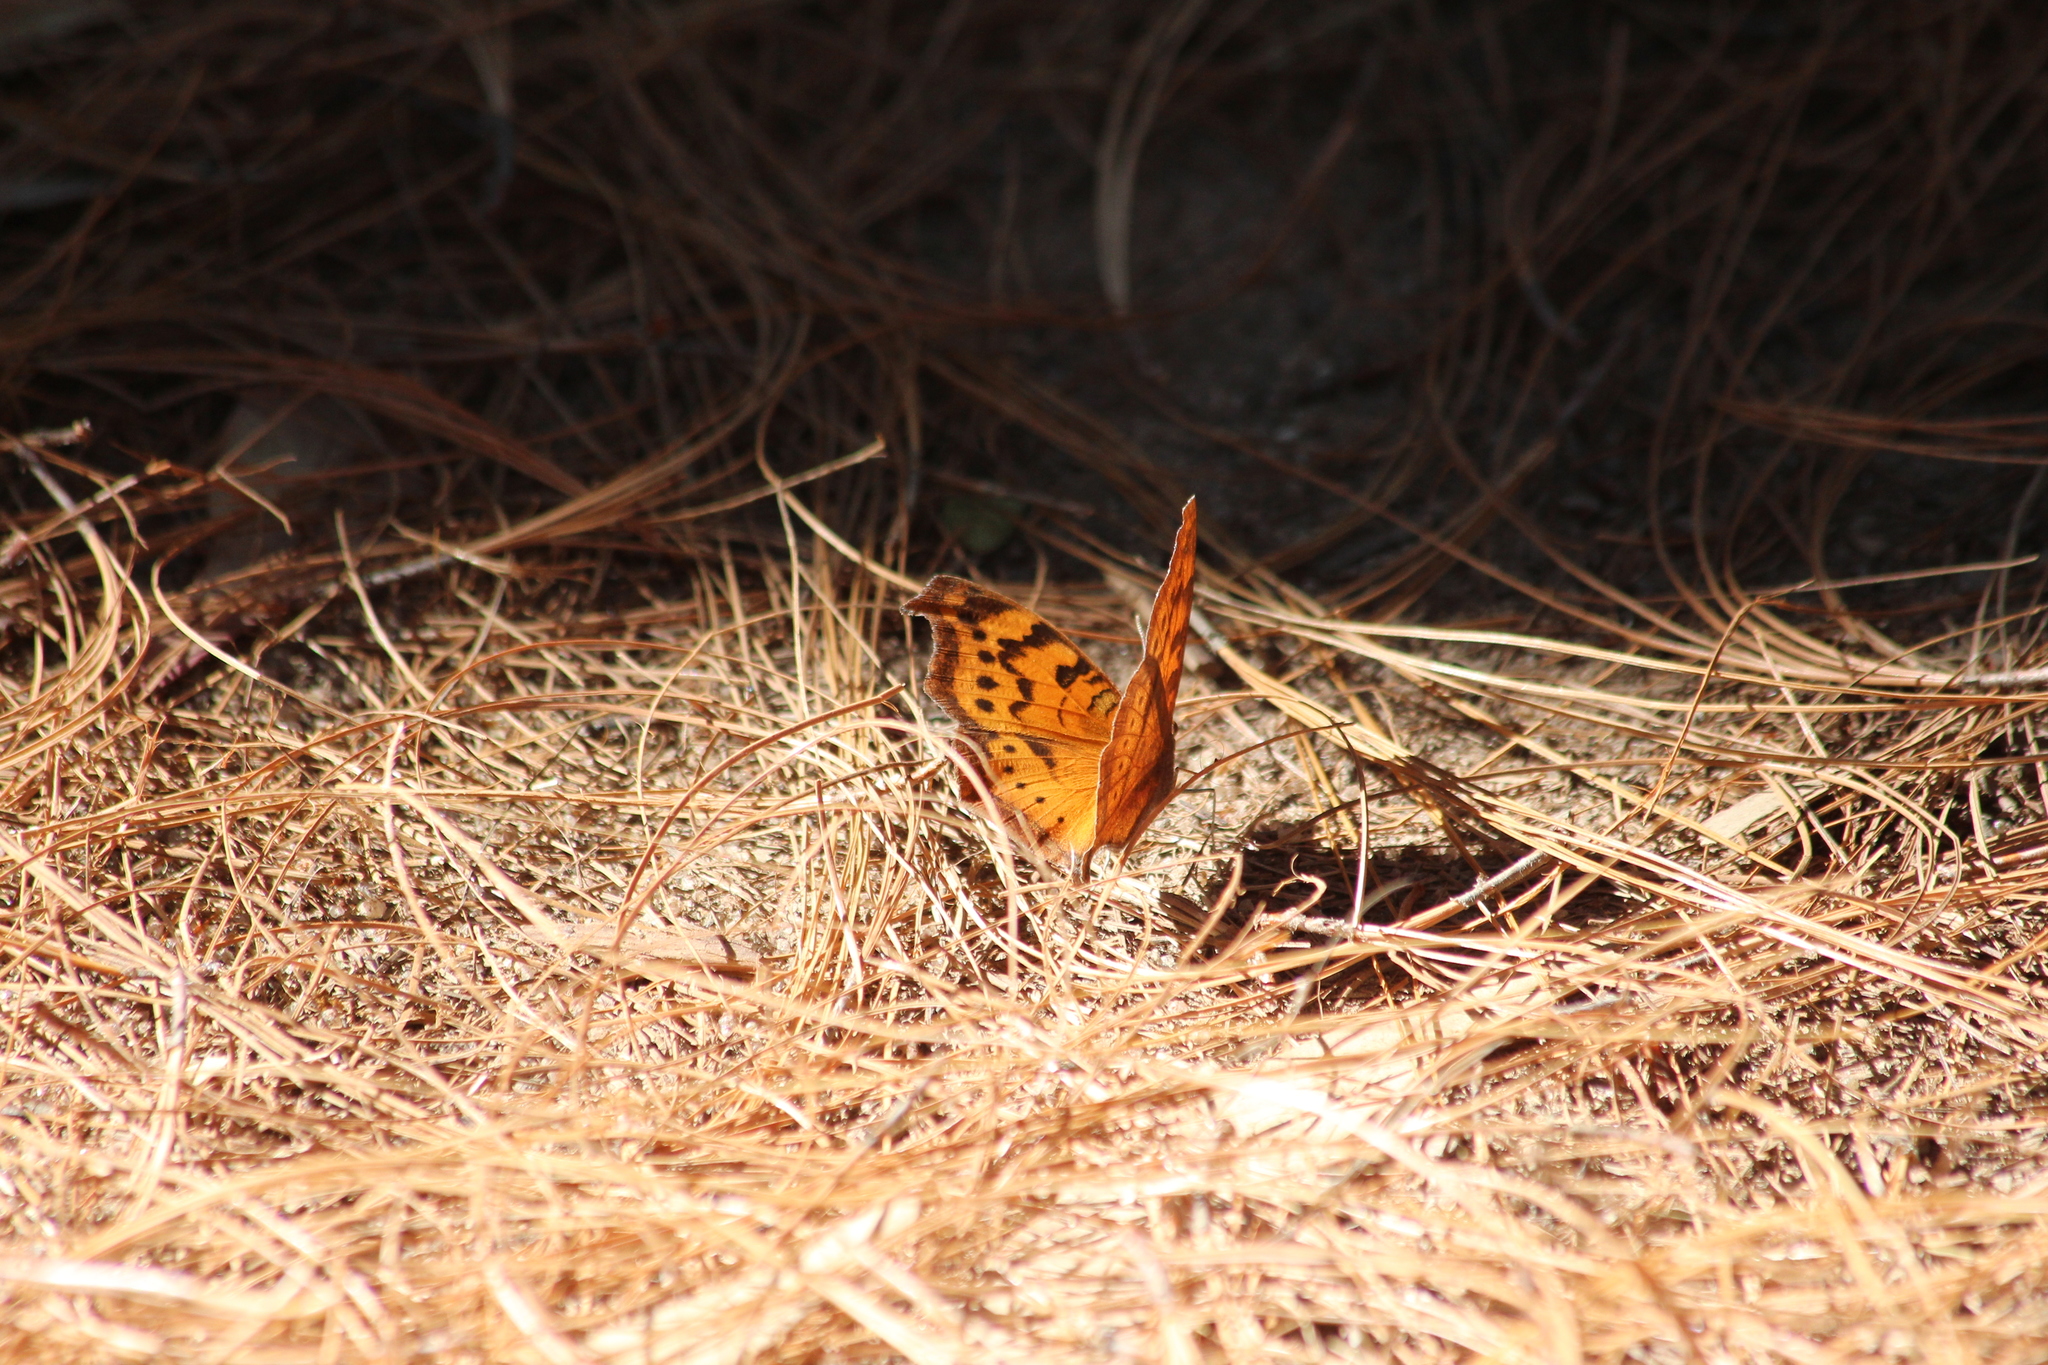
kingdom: Animalia
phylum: Arthropoda
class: Insecta
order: Lepidoptera
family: Nymphalidae
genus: Junonia
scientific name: Junonia antilope
